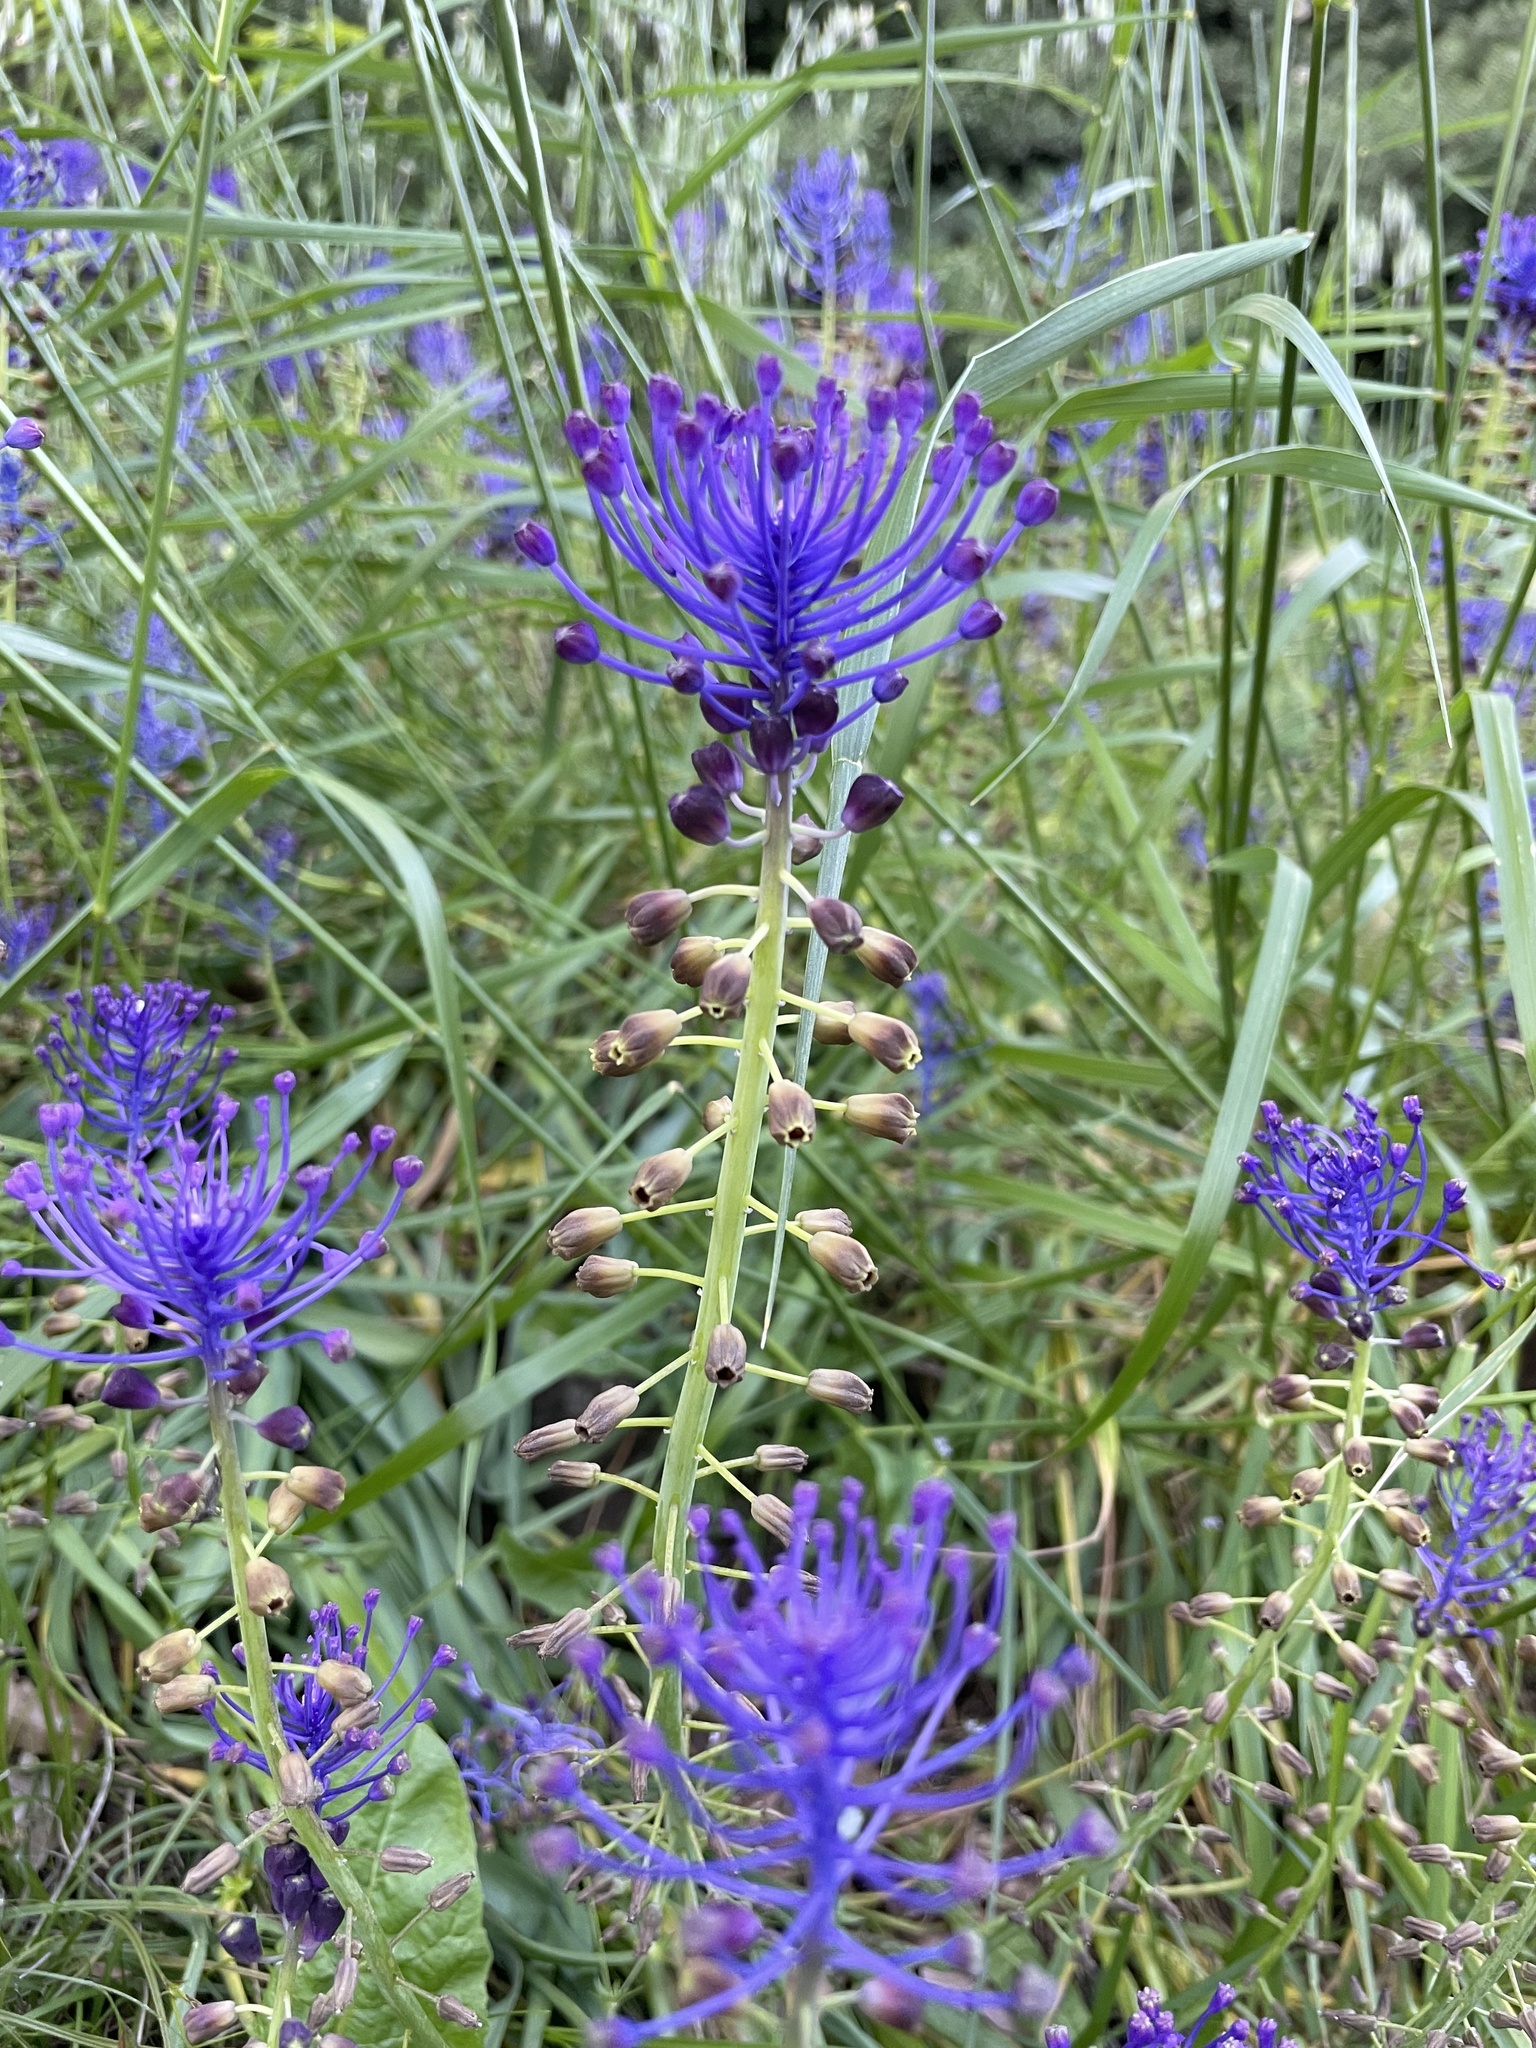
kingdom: Plantae
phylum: Tracheophyta
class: Liliopsida
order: Asparagales
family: Asparagaceae
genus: Muscari
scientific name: Muscari comosum
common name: Tassel hyacinth
